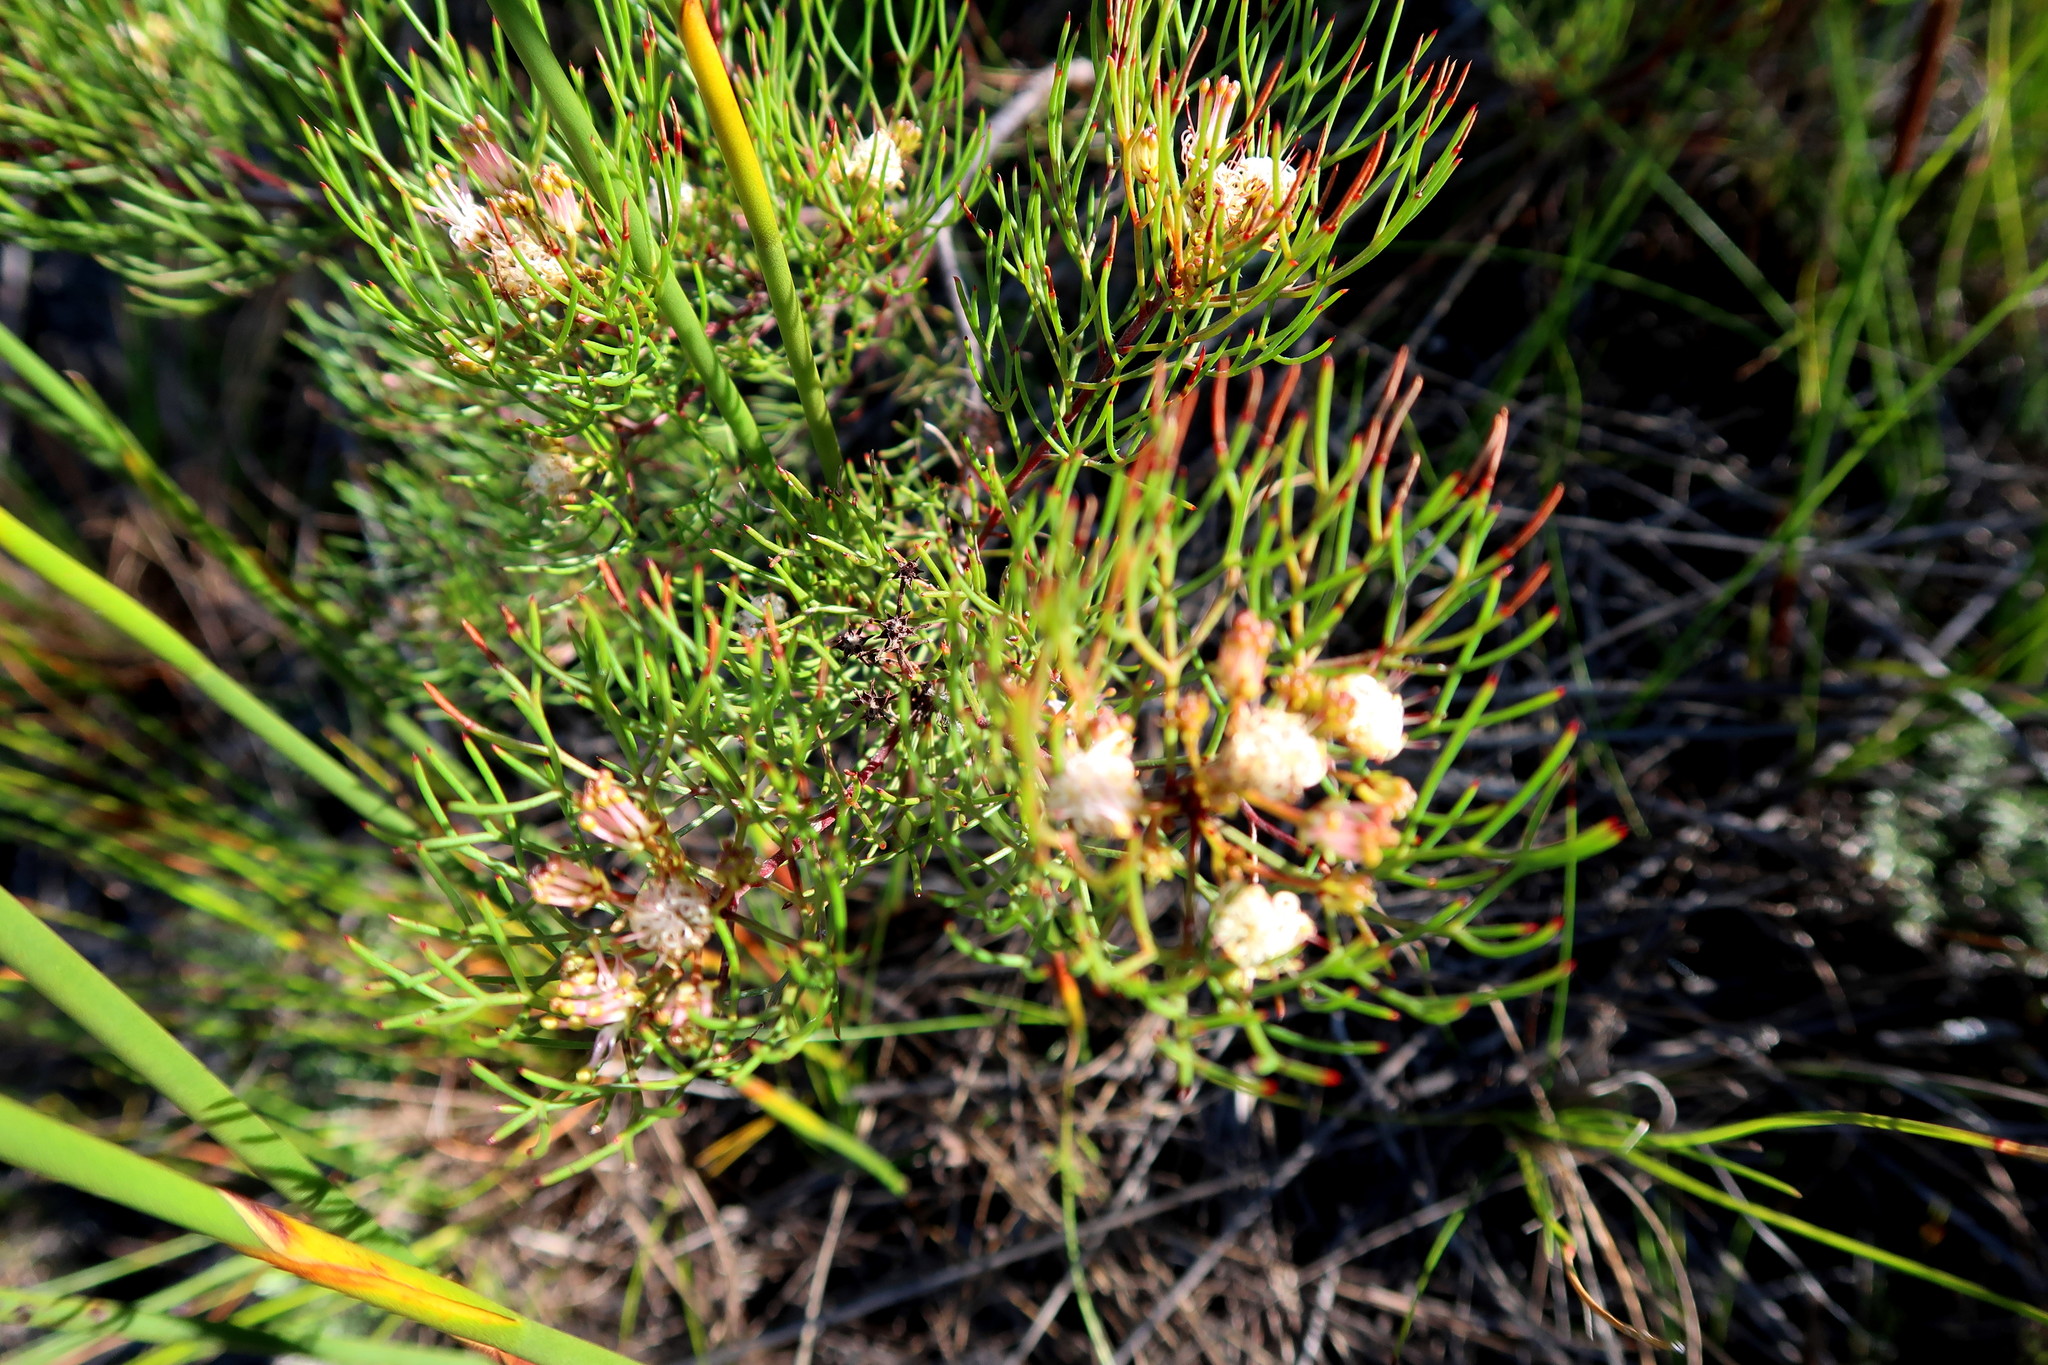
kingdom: Plantae
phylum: Tracheophyta
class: Magnoliopsida
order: Proteales
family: Proteaceae
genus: Serruria
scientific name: Serruria fasciflora
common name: Common pin spiderhead
